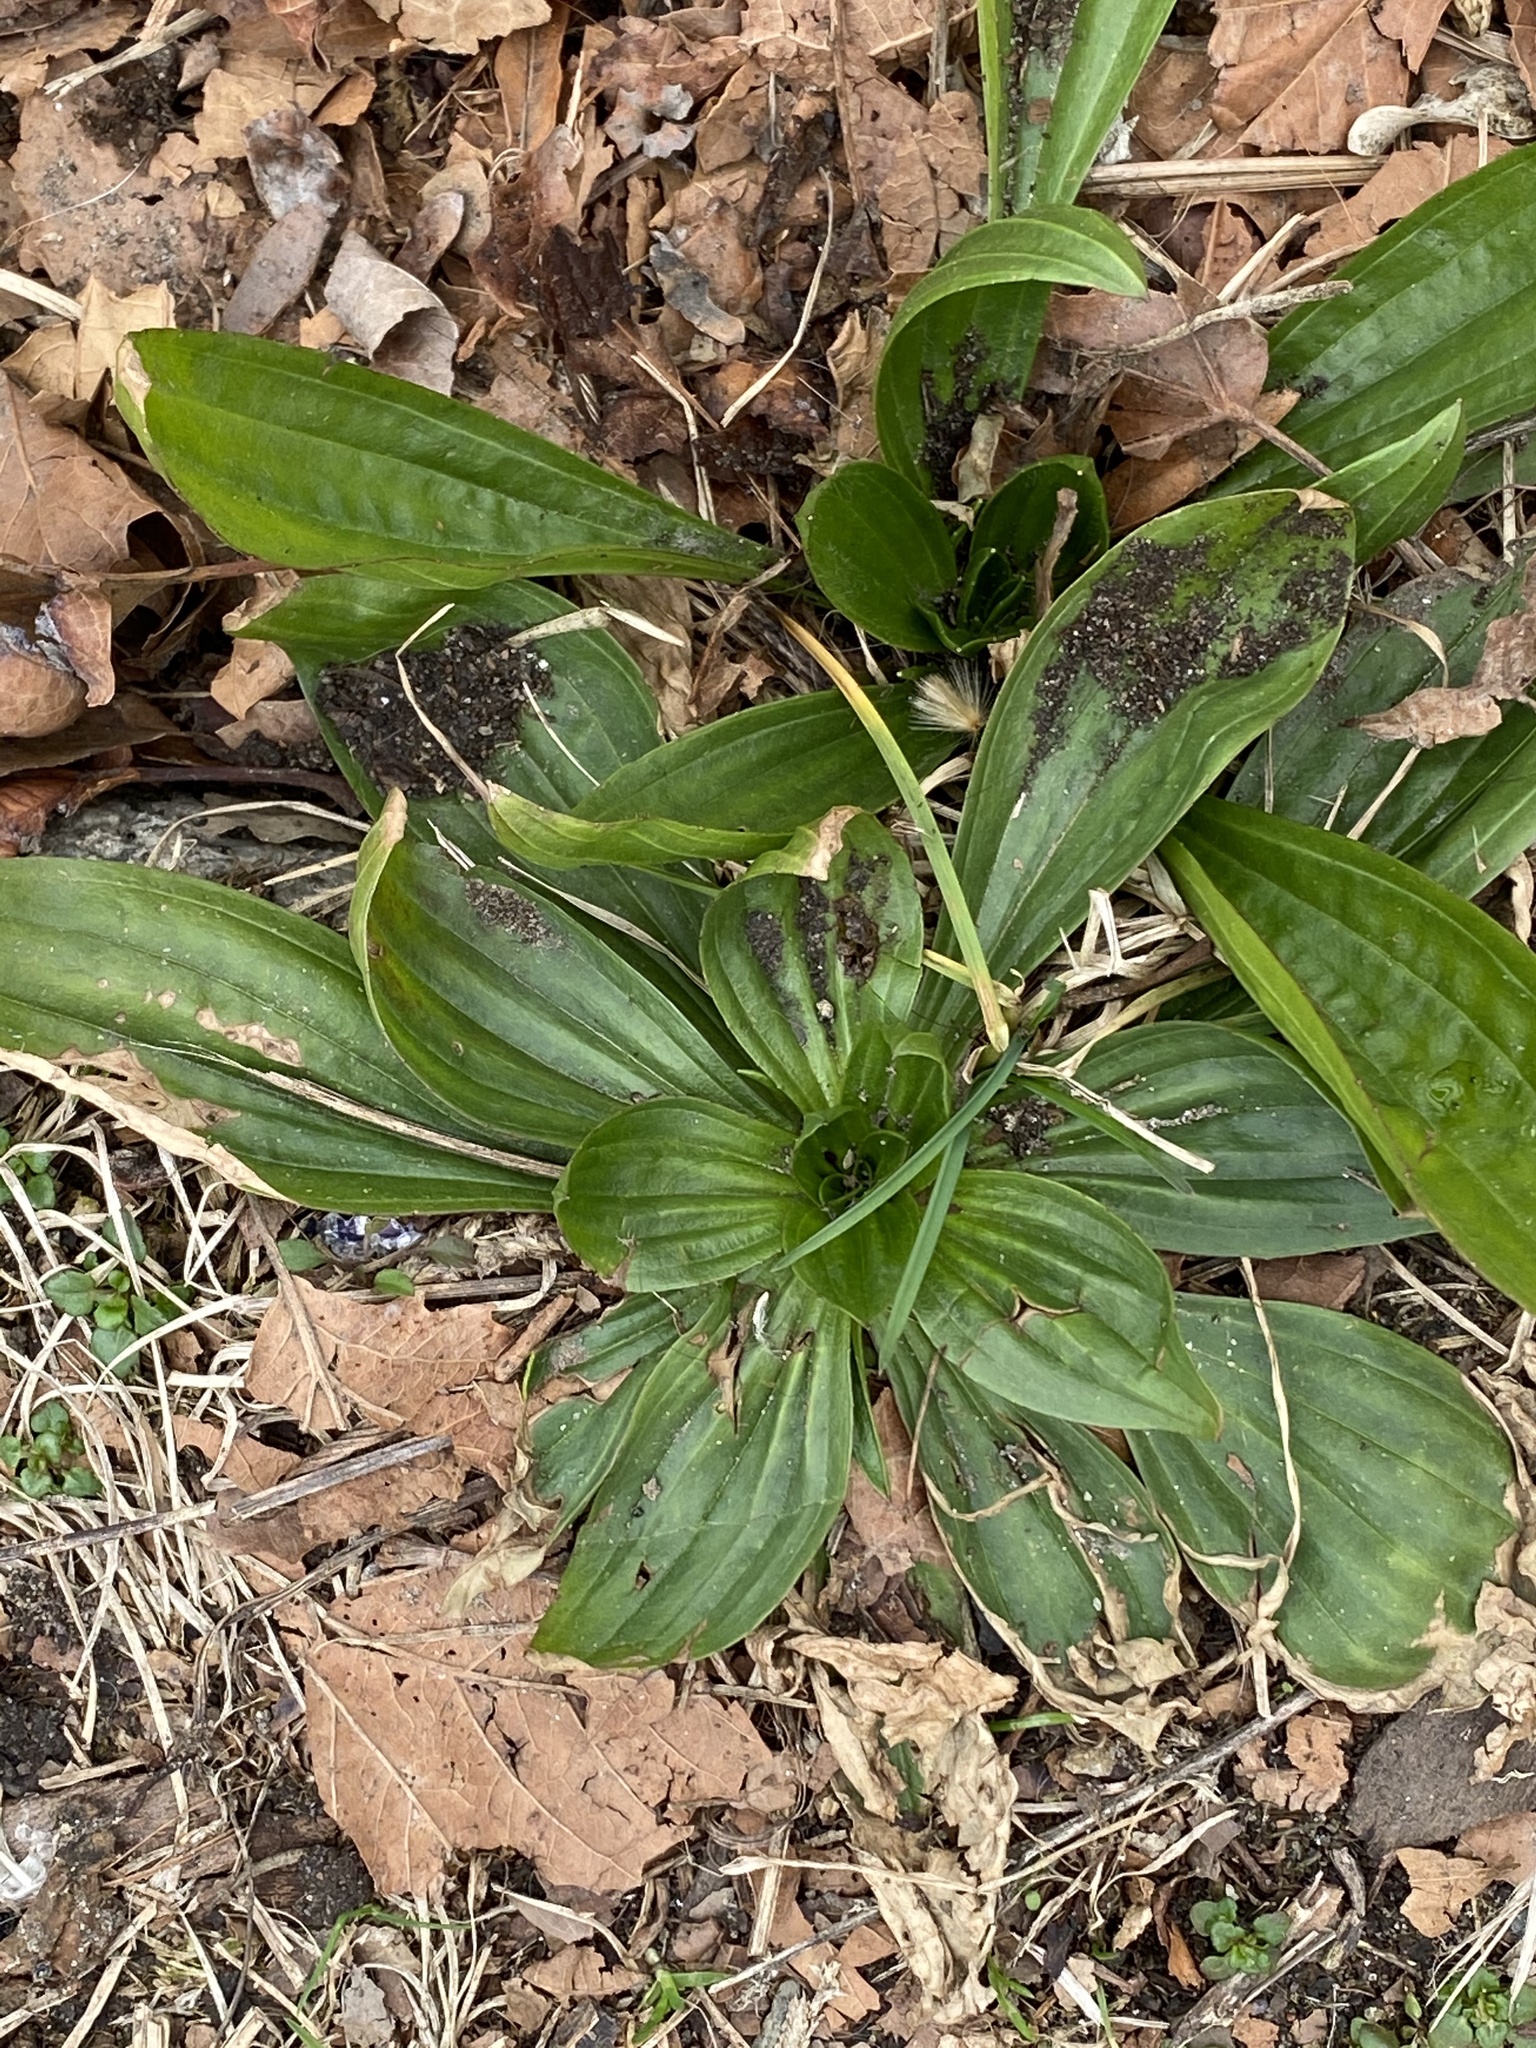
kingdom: Plantae
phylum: Tracheophyta
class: Magnoliopsida
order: Lamiales
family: Plantaginaceae
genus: Plantago
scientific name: Plantago lanceolata
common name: Ribwort plantain
